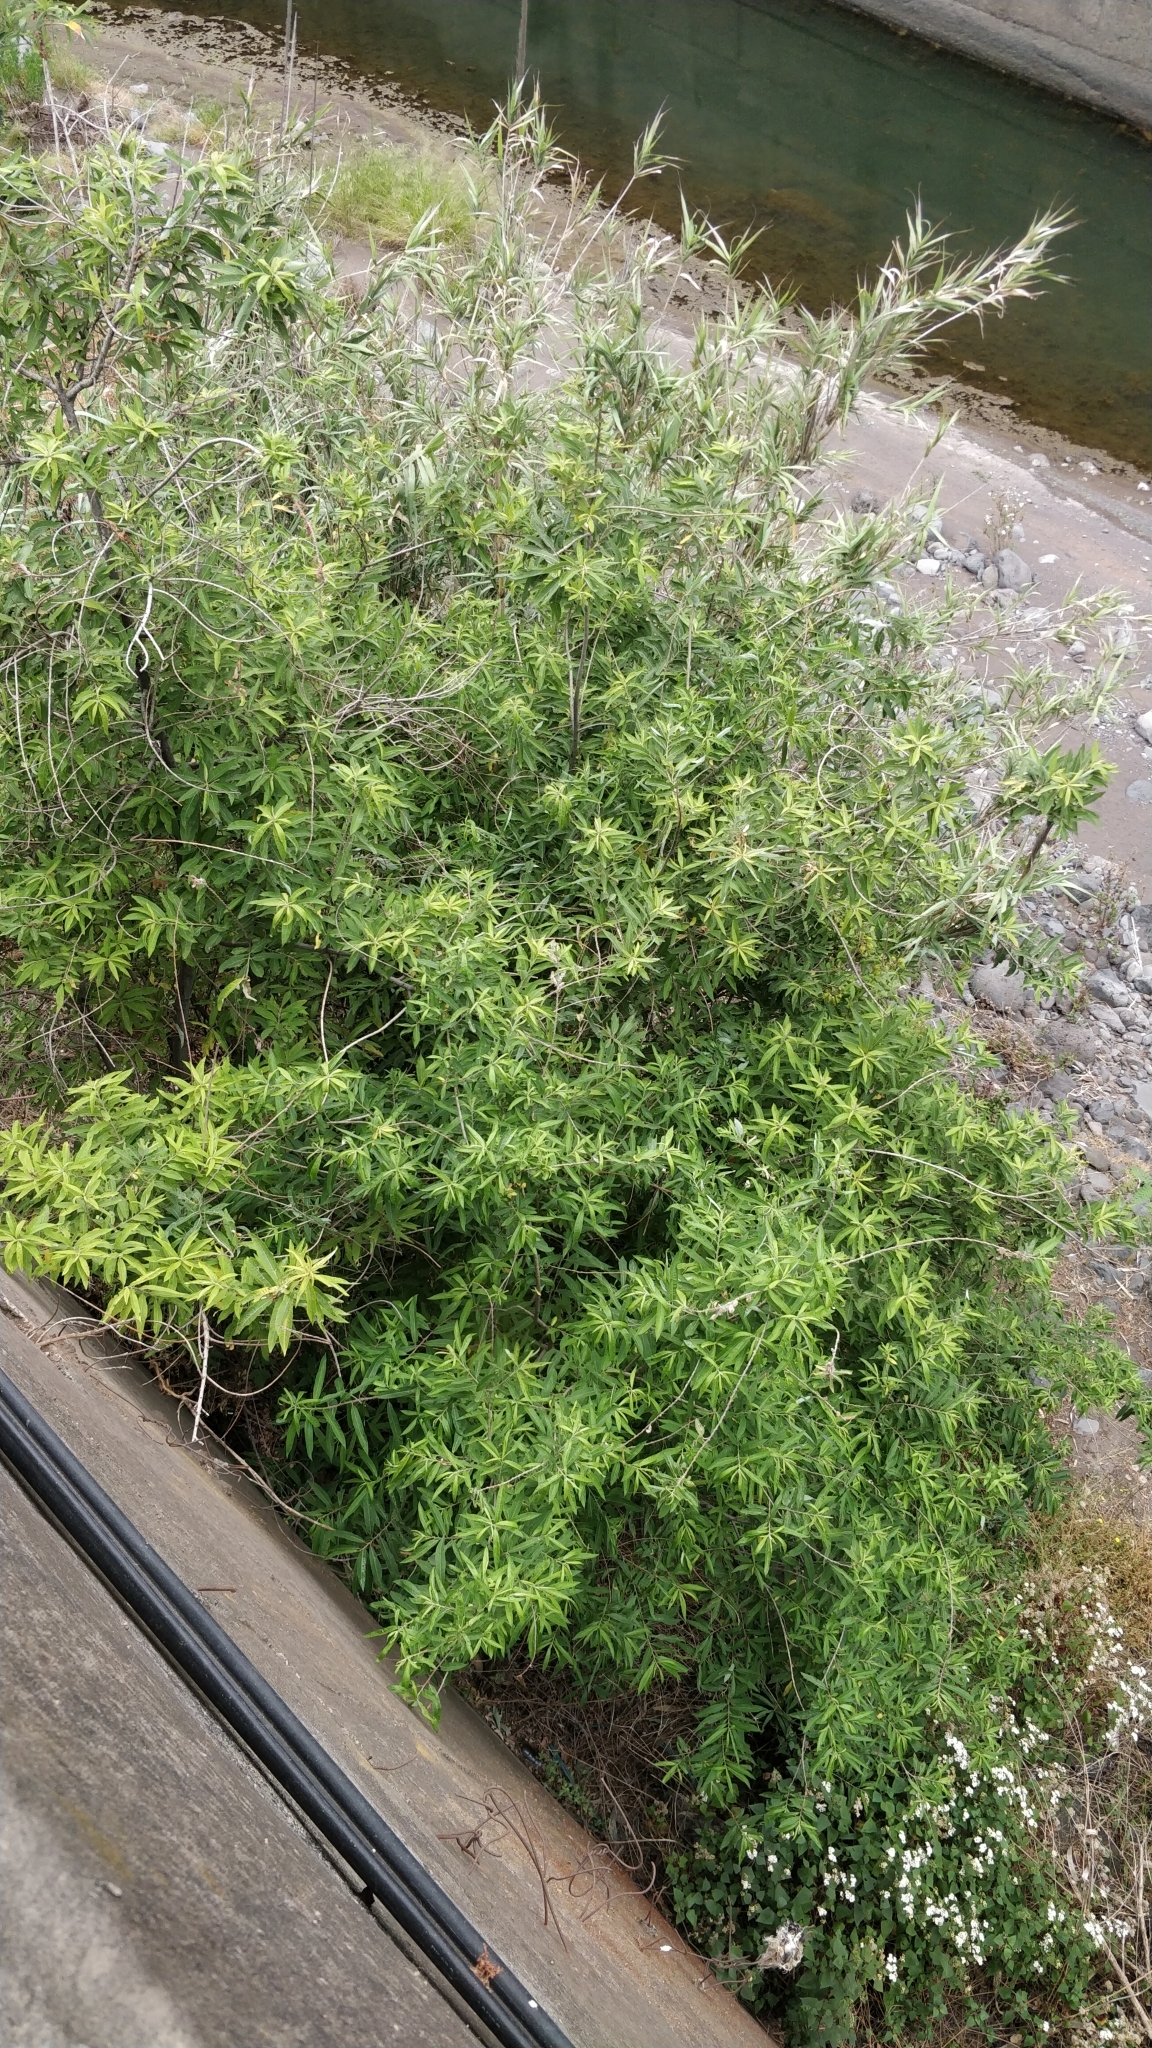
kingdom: Plantae
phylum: Tracheophyta
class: Magnoliopsida
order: Malpighiales
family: Salicaceae
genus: Salix
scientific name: Salix canariensis
